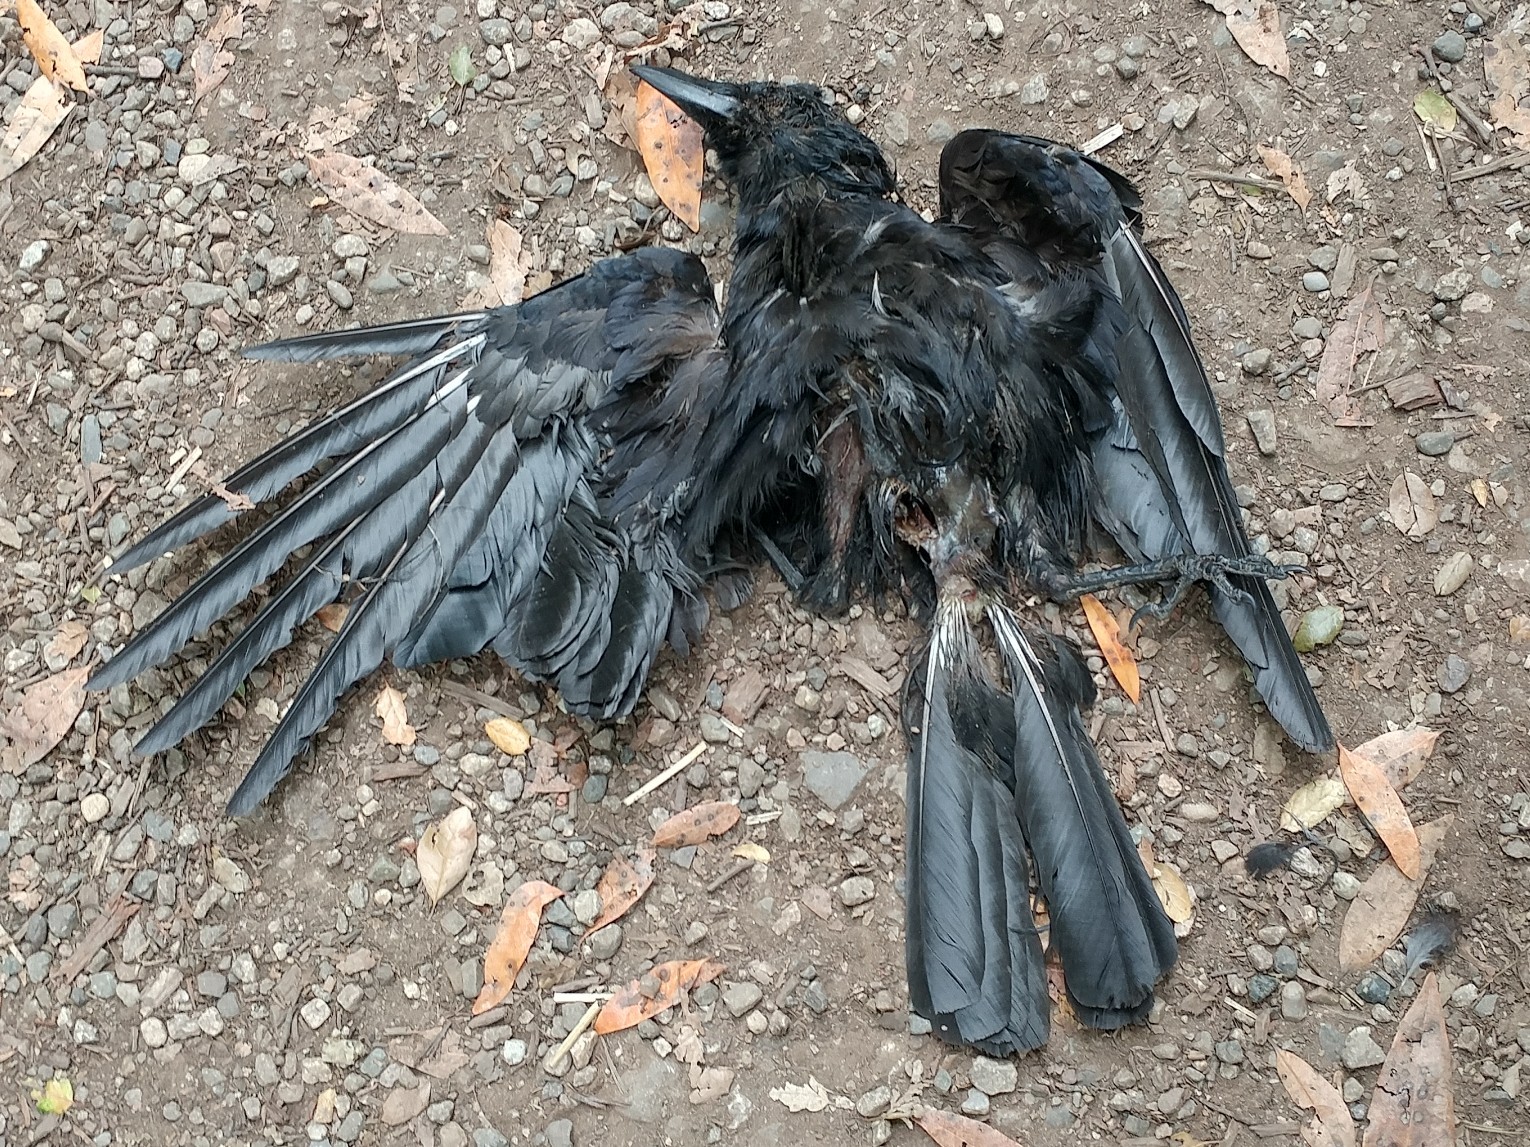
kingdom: Animalia
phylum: Chordata
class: Aves
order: Passeriformes
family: Corvidae
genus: Corvus
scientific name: Corvus brachyrhynchos
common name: American crow
